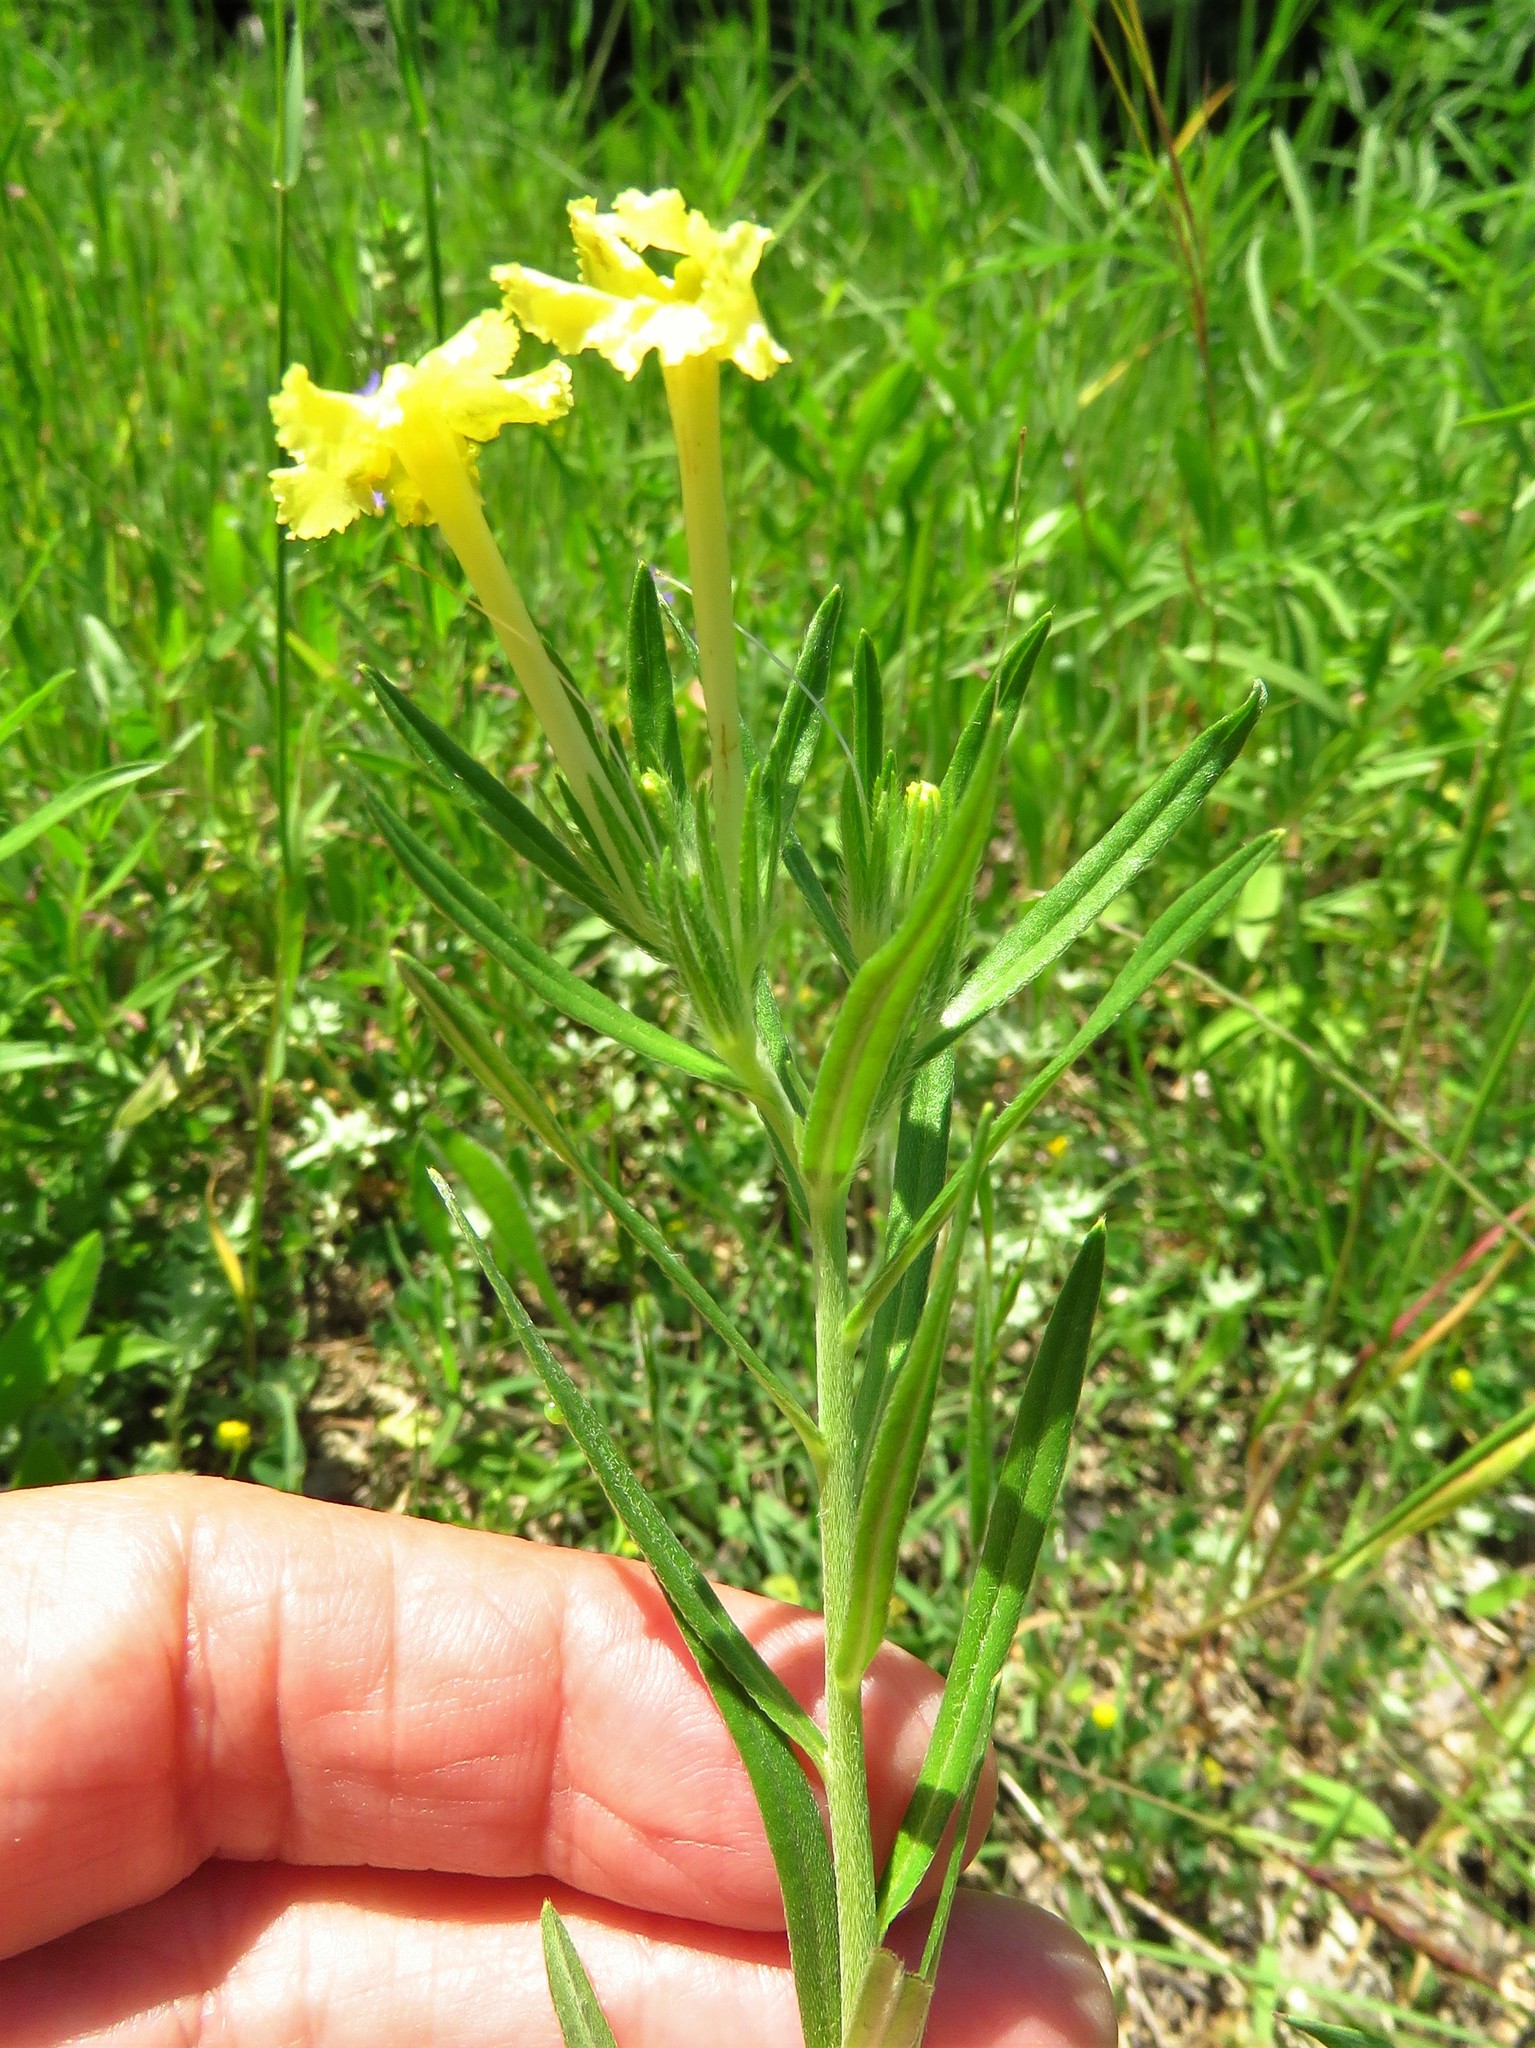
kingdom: Plantae
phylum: Tracheophyta
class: Magnoliopsida
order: Boraginales
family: Boraginaceae
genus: Lithospermum
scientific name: Lithospermum incisum
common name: Fringed gromwell
